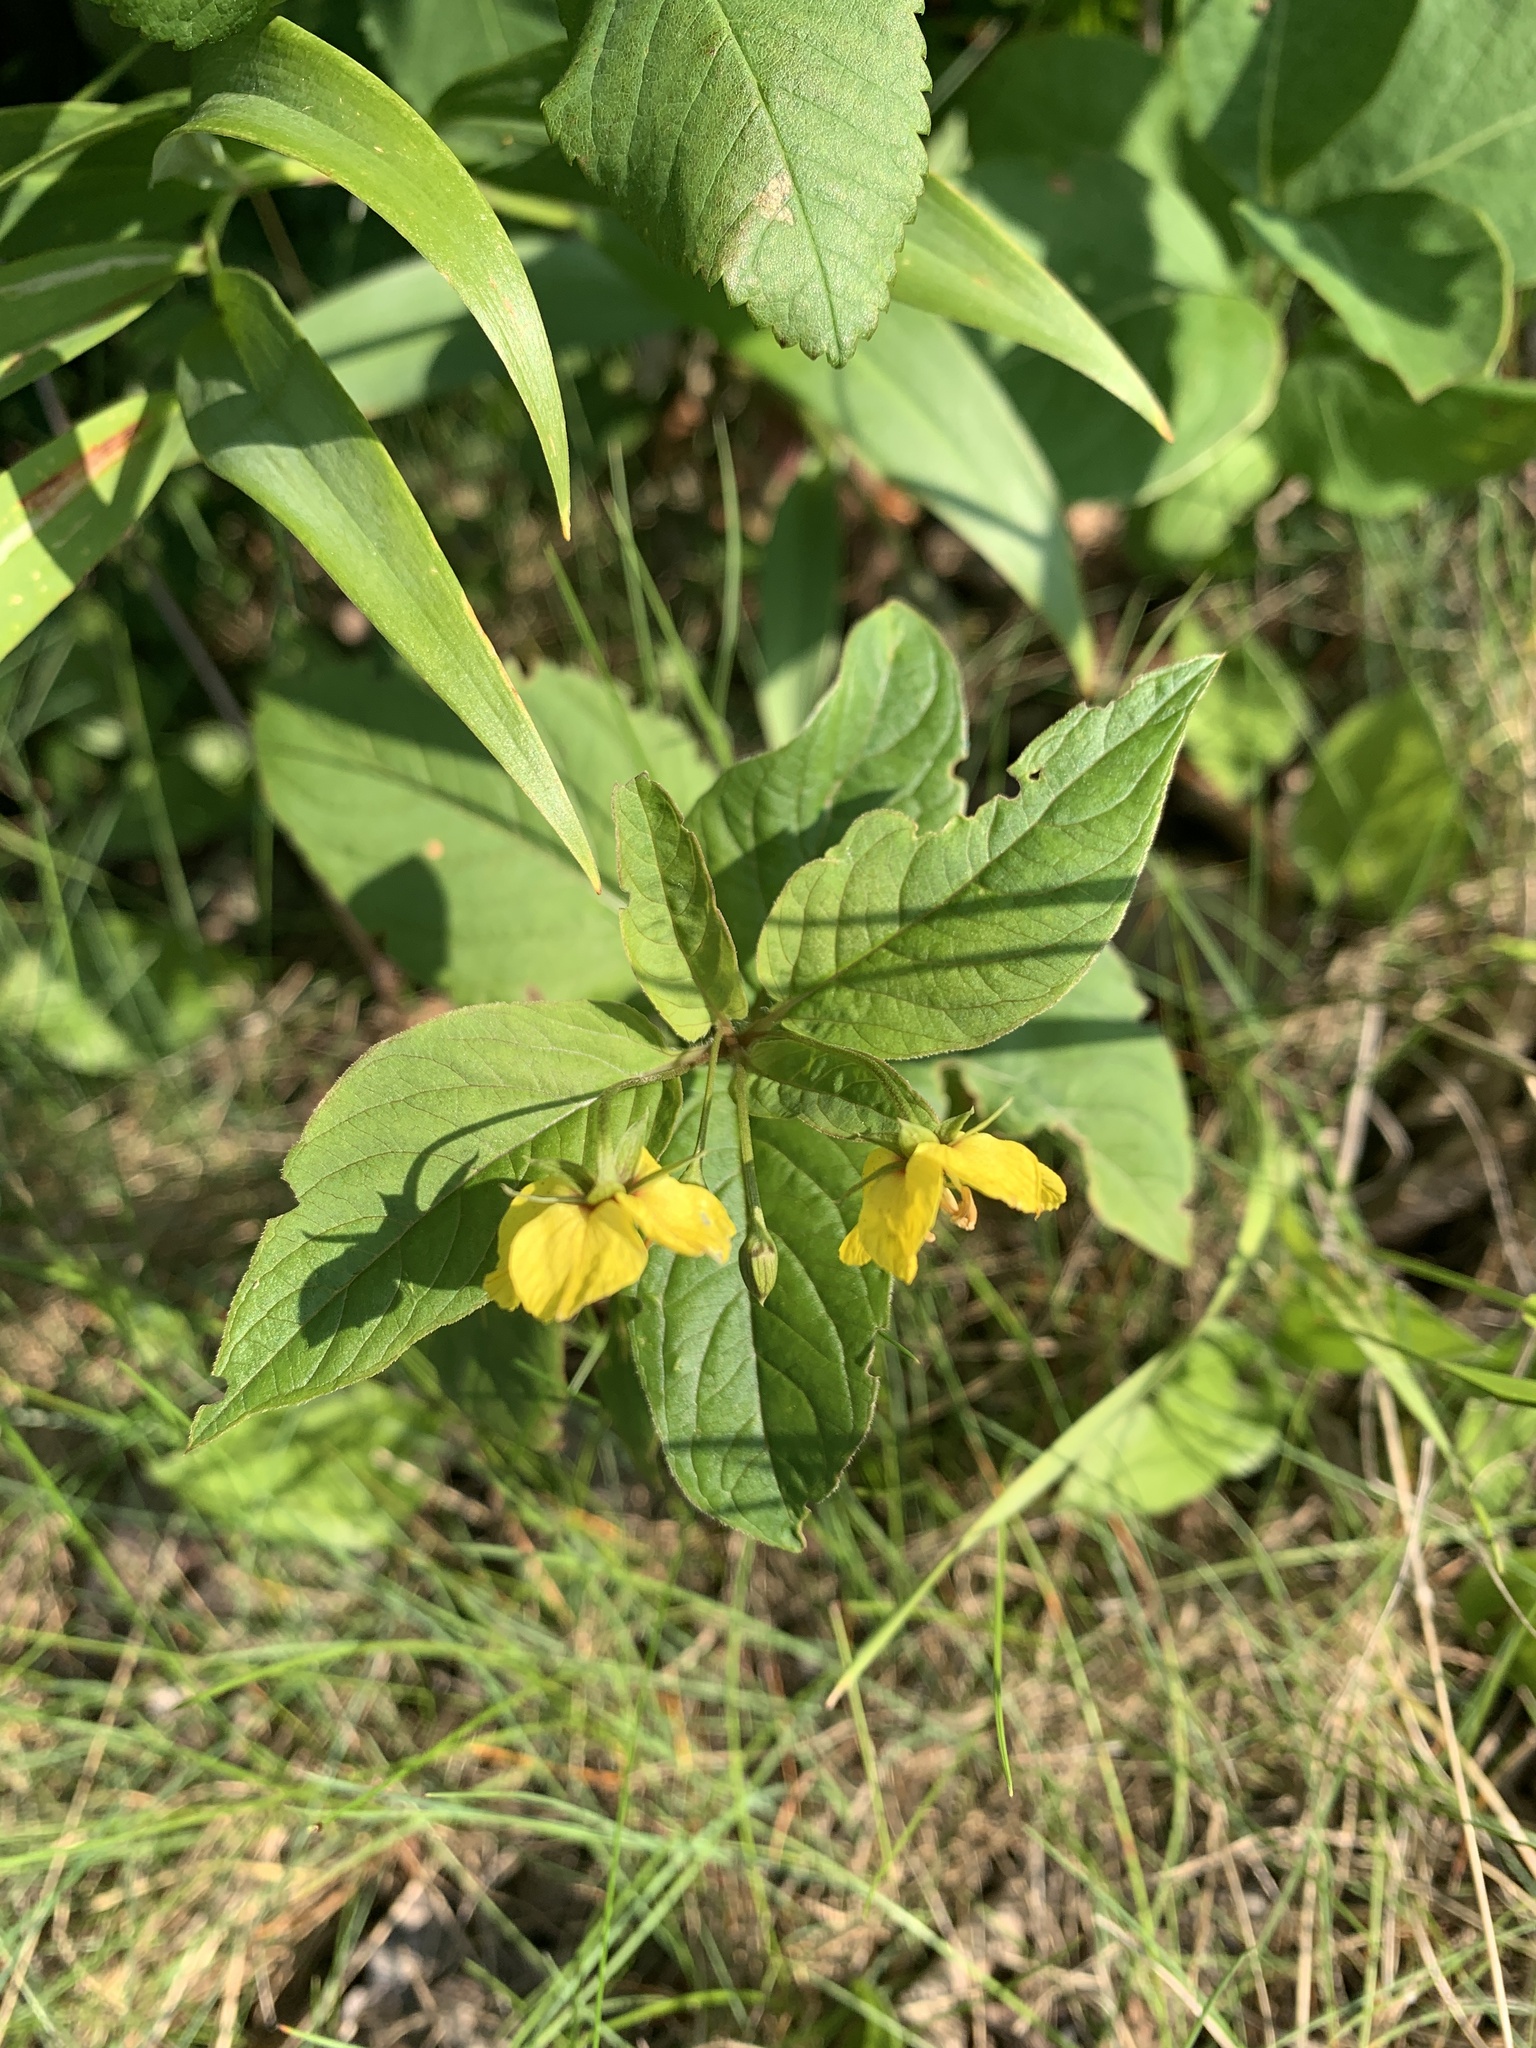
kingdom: Plantae
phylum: Tracheophyta
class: Magnoliopsida
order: Ericales
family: Primulaceae
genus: Lysimachia
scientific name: Lysimachia ciliata
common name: Fringed loosestrife
